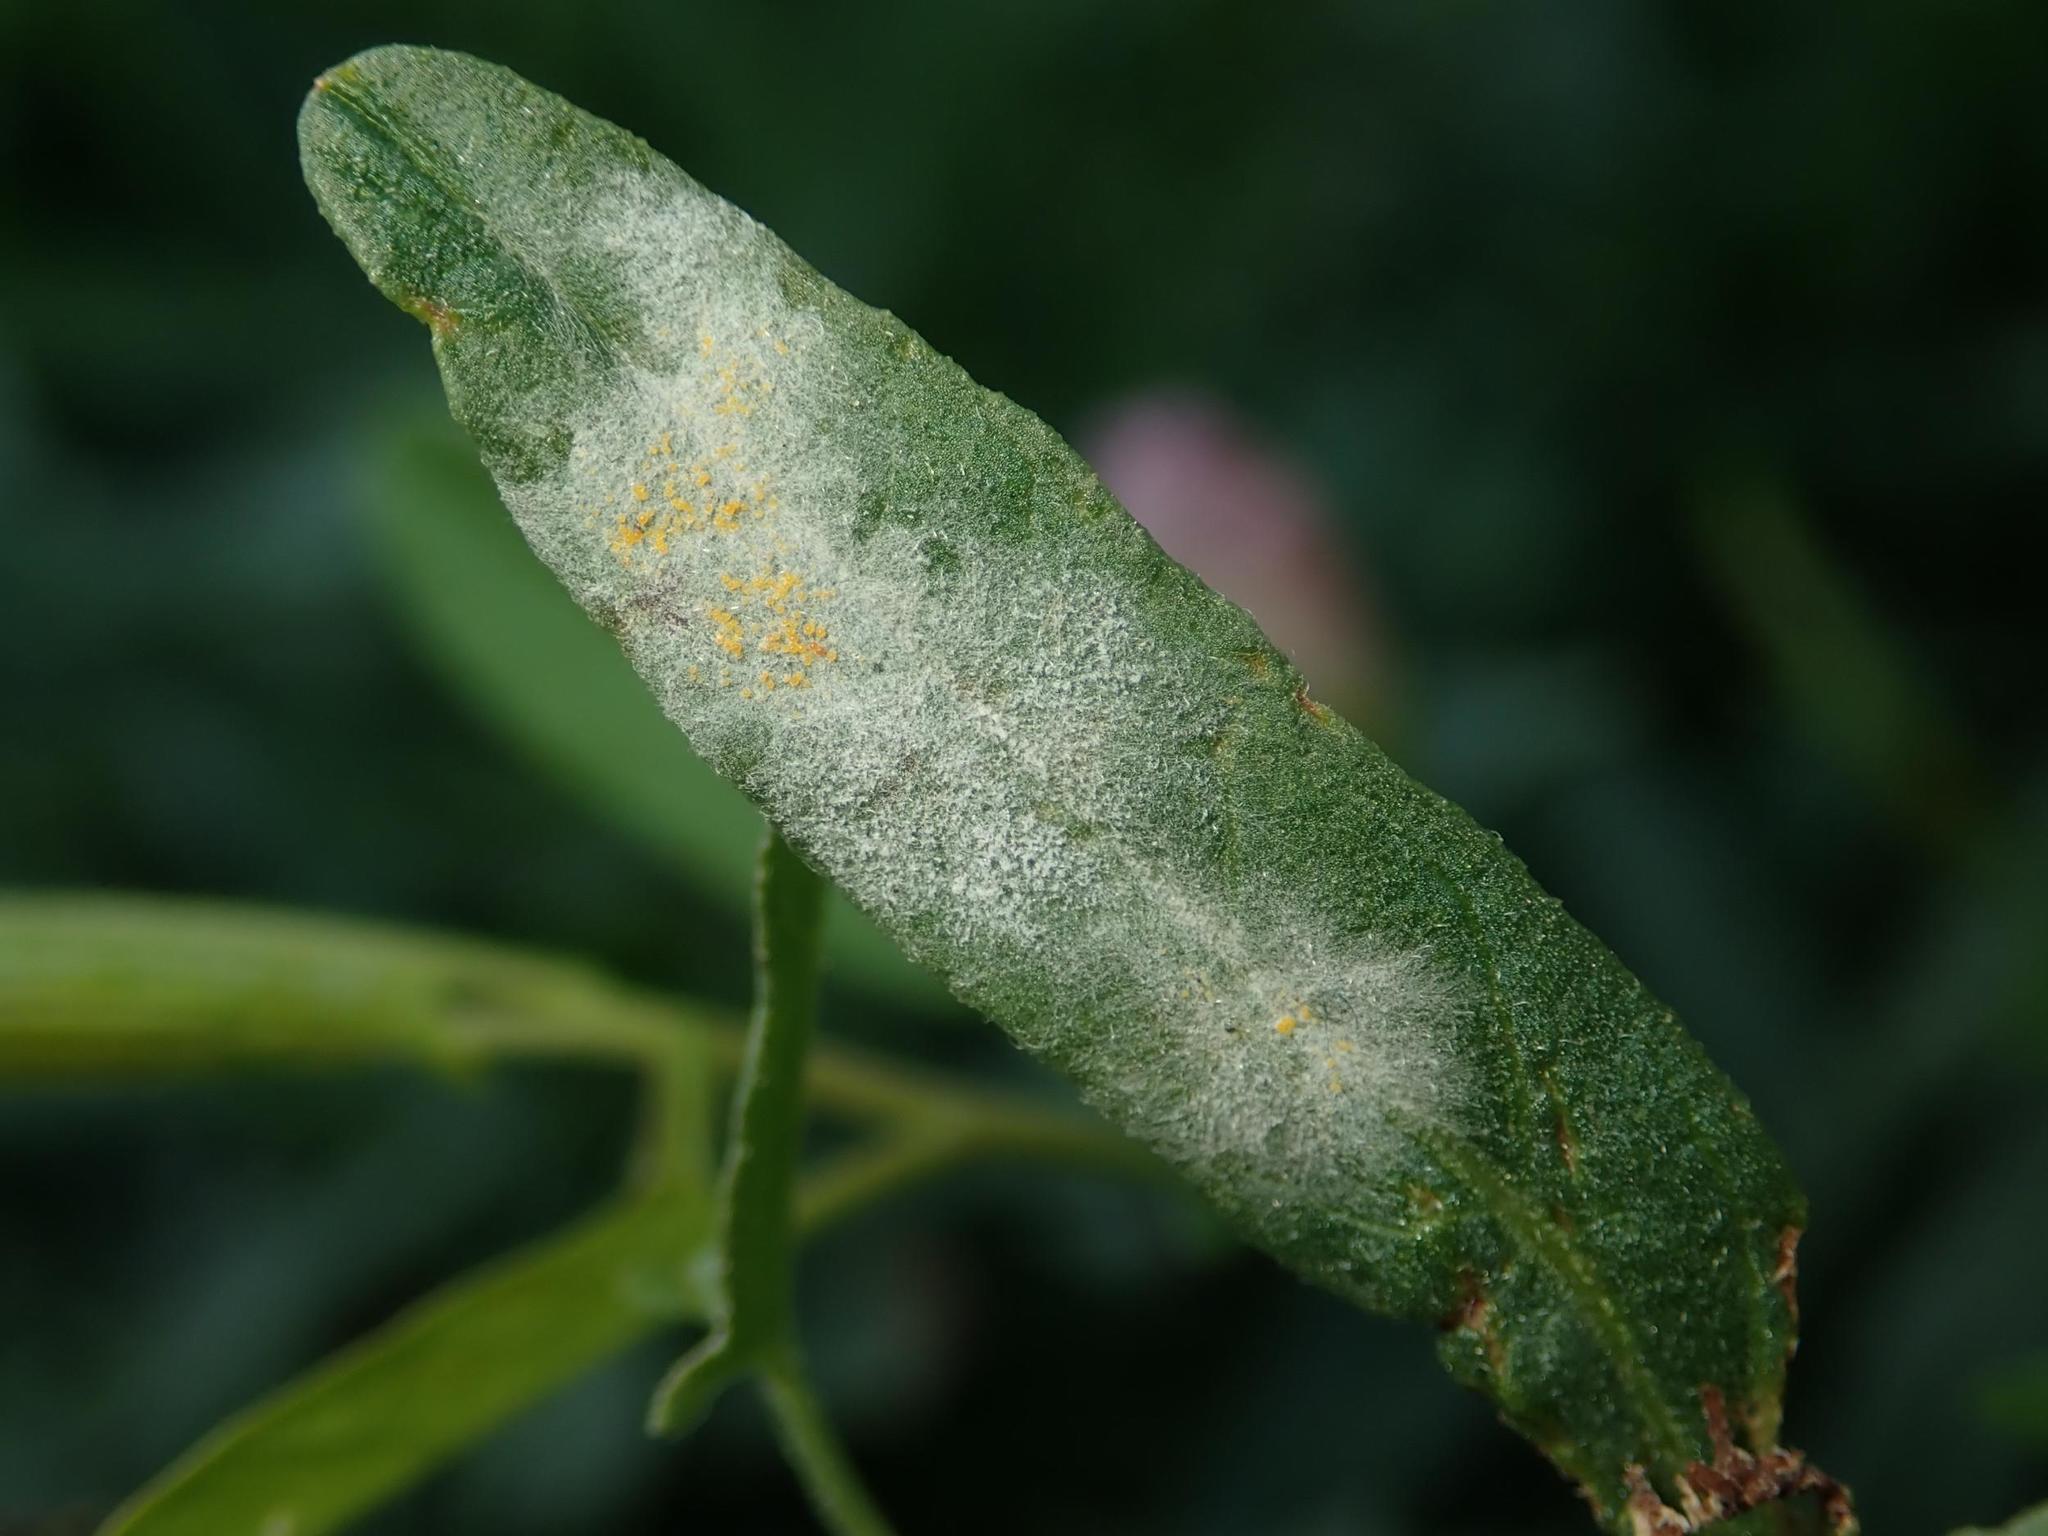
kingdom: Fungi
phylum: Ascomycota
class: Leotiomycetes
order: Helotiales
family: Erysiphaceae
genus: Erysiphe
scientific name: Erysiphe convolvuli
